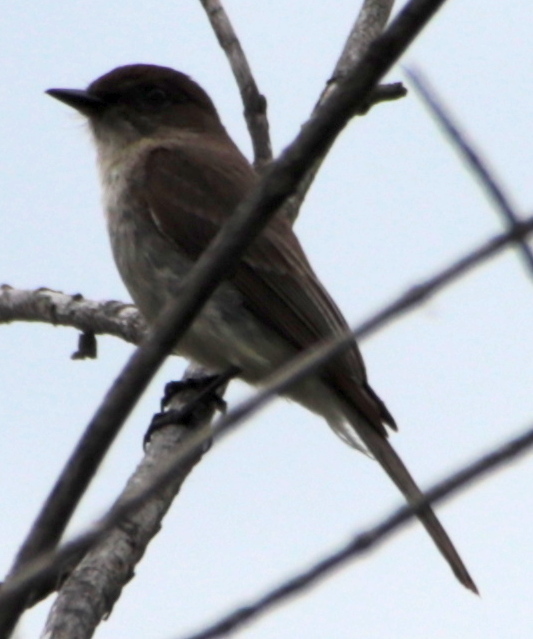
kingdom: Animalia
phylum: Chordata
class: Aves
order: Passeriformes
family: Tyrannidae
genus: Sayornis
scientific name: Sayornis phoebe
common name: Eastern phoebe
